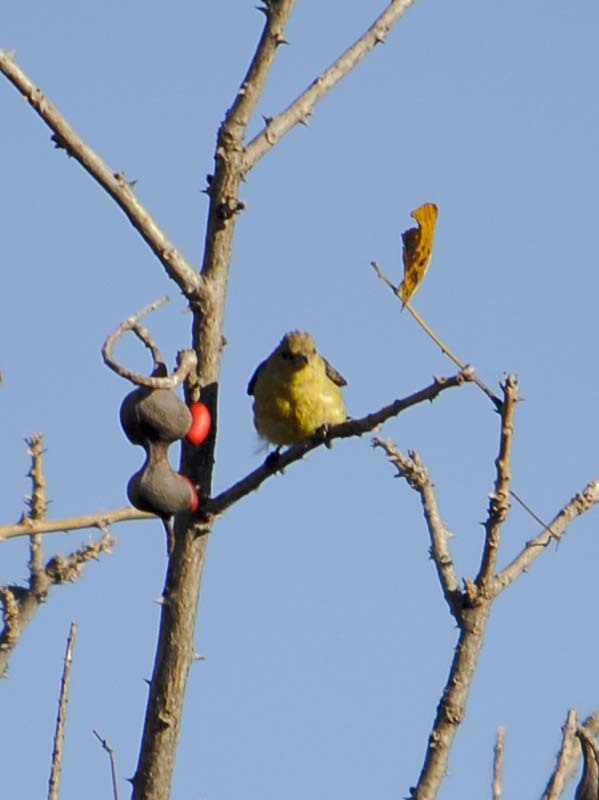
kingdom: Animalia
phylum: Chordata
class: Aves
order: Passeriformes
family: Fringillidae
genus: Spinus
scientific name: Spinus psaltria
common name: Lesser goldfinch
